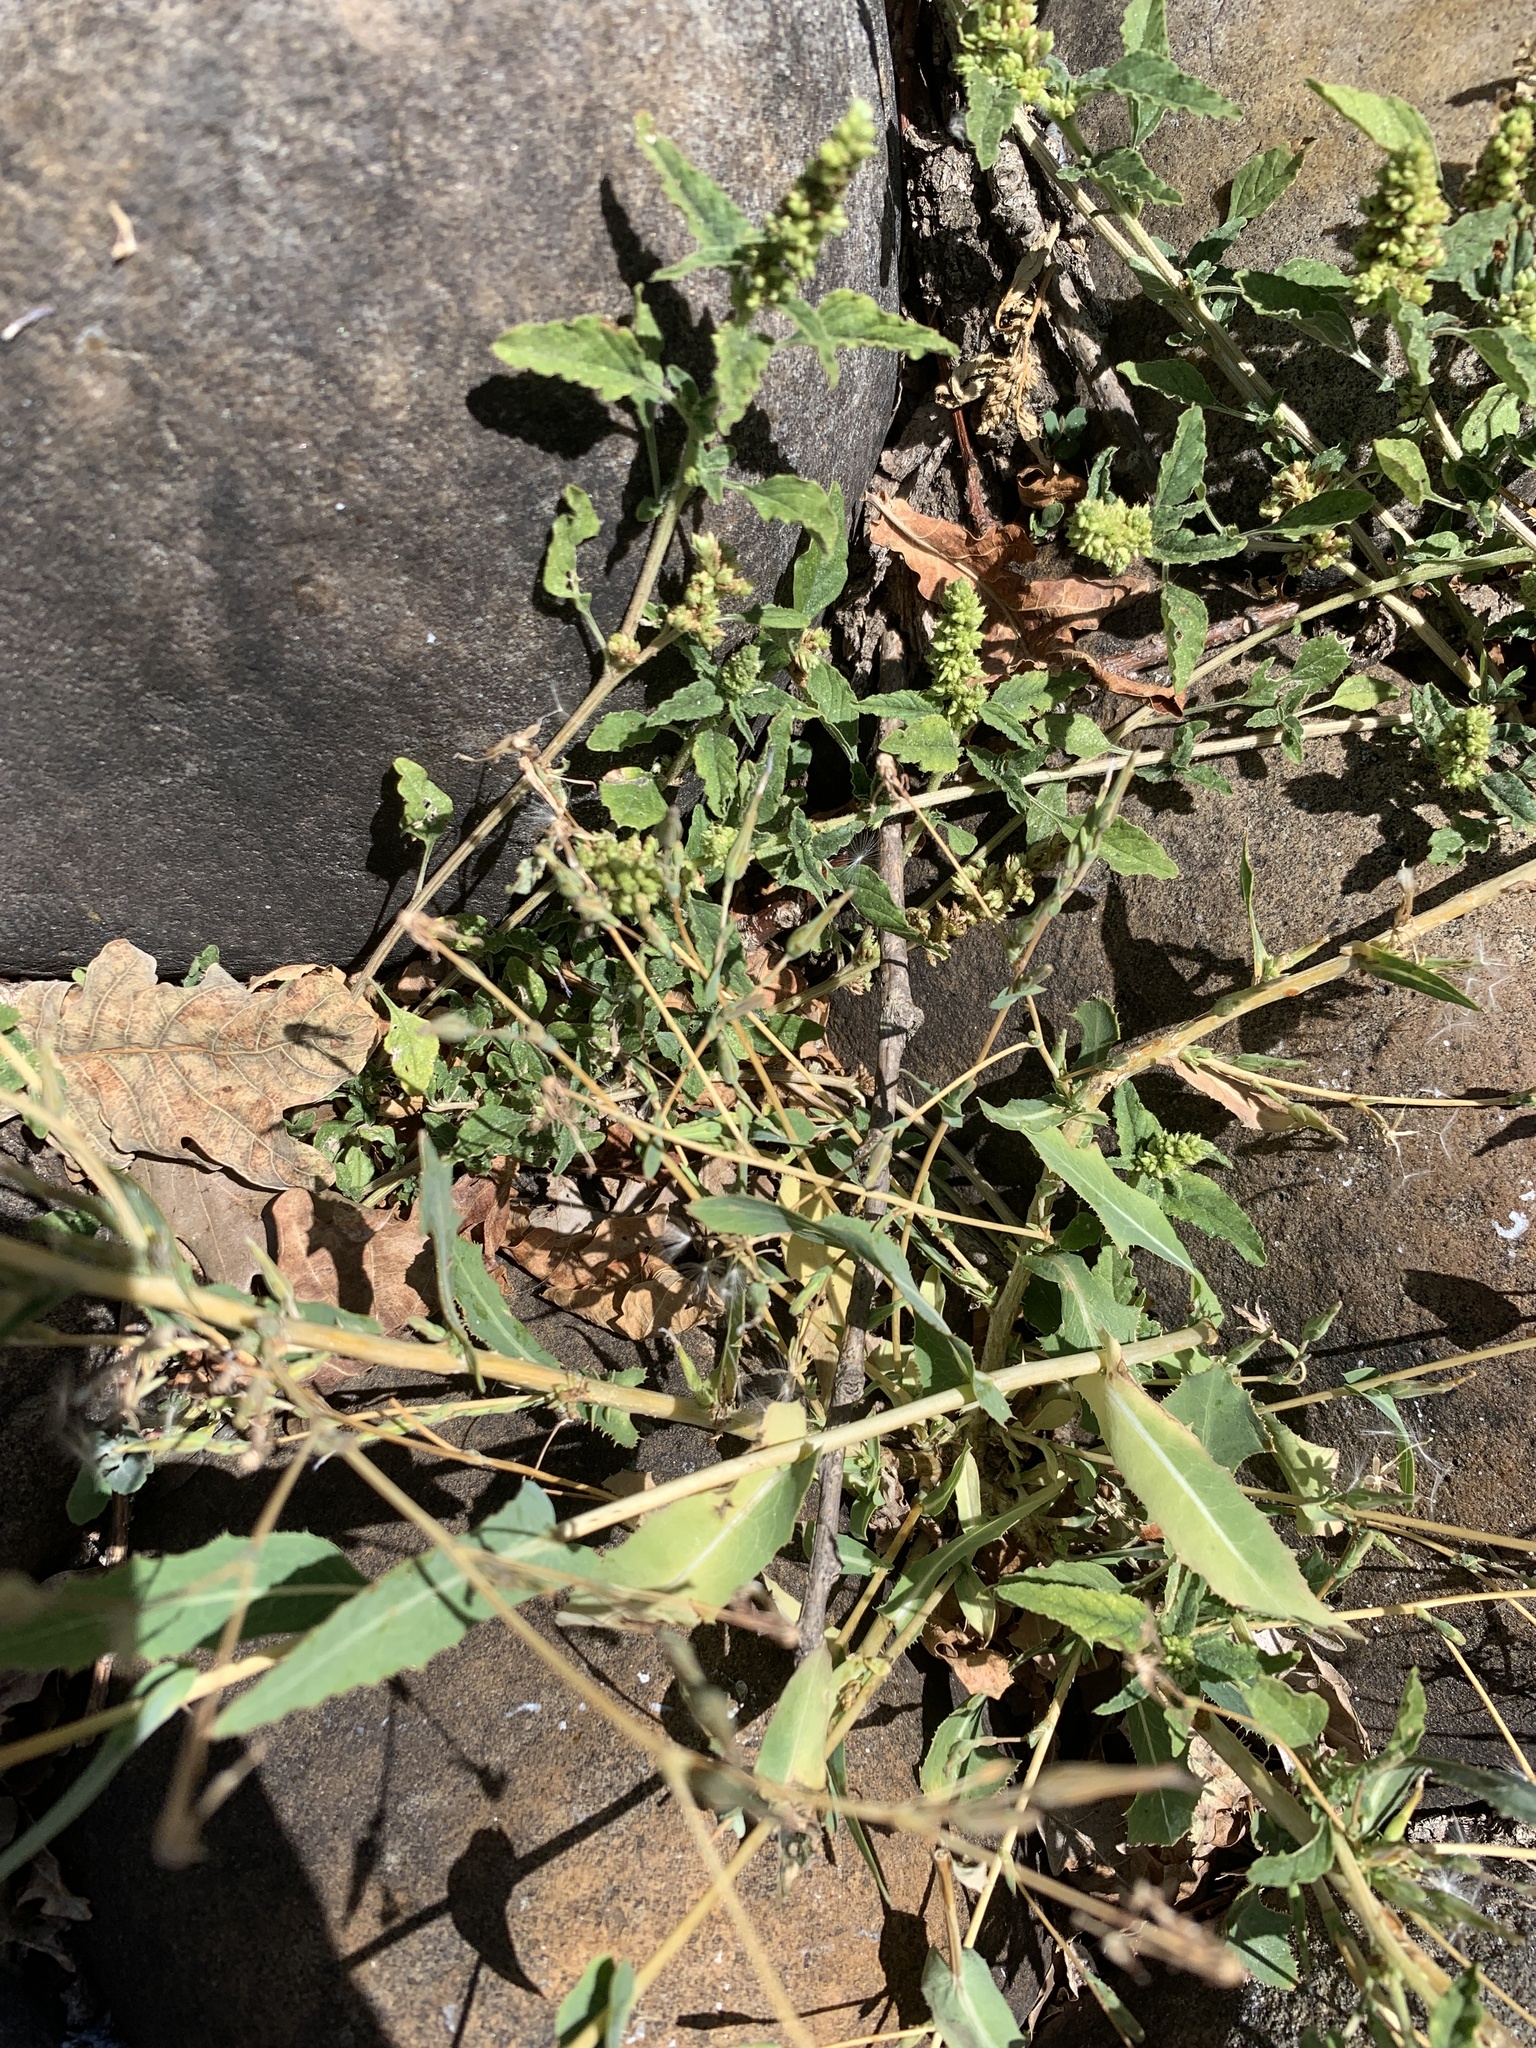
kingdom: Plantae
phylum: Tracheophyta
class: Magnoliopsida
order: Caryophyllales
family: Amaranthaceae
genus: Amaranthus
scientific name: Amaranthus deflexus
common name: Perennial pigweed
